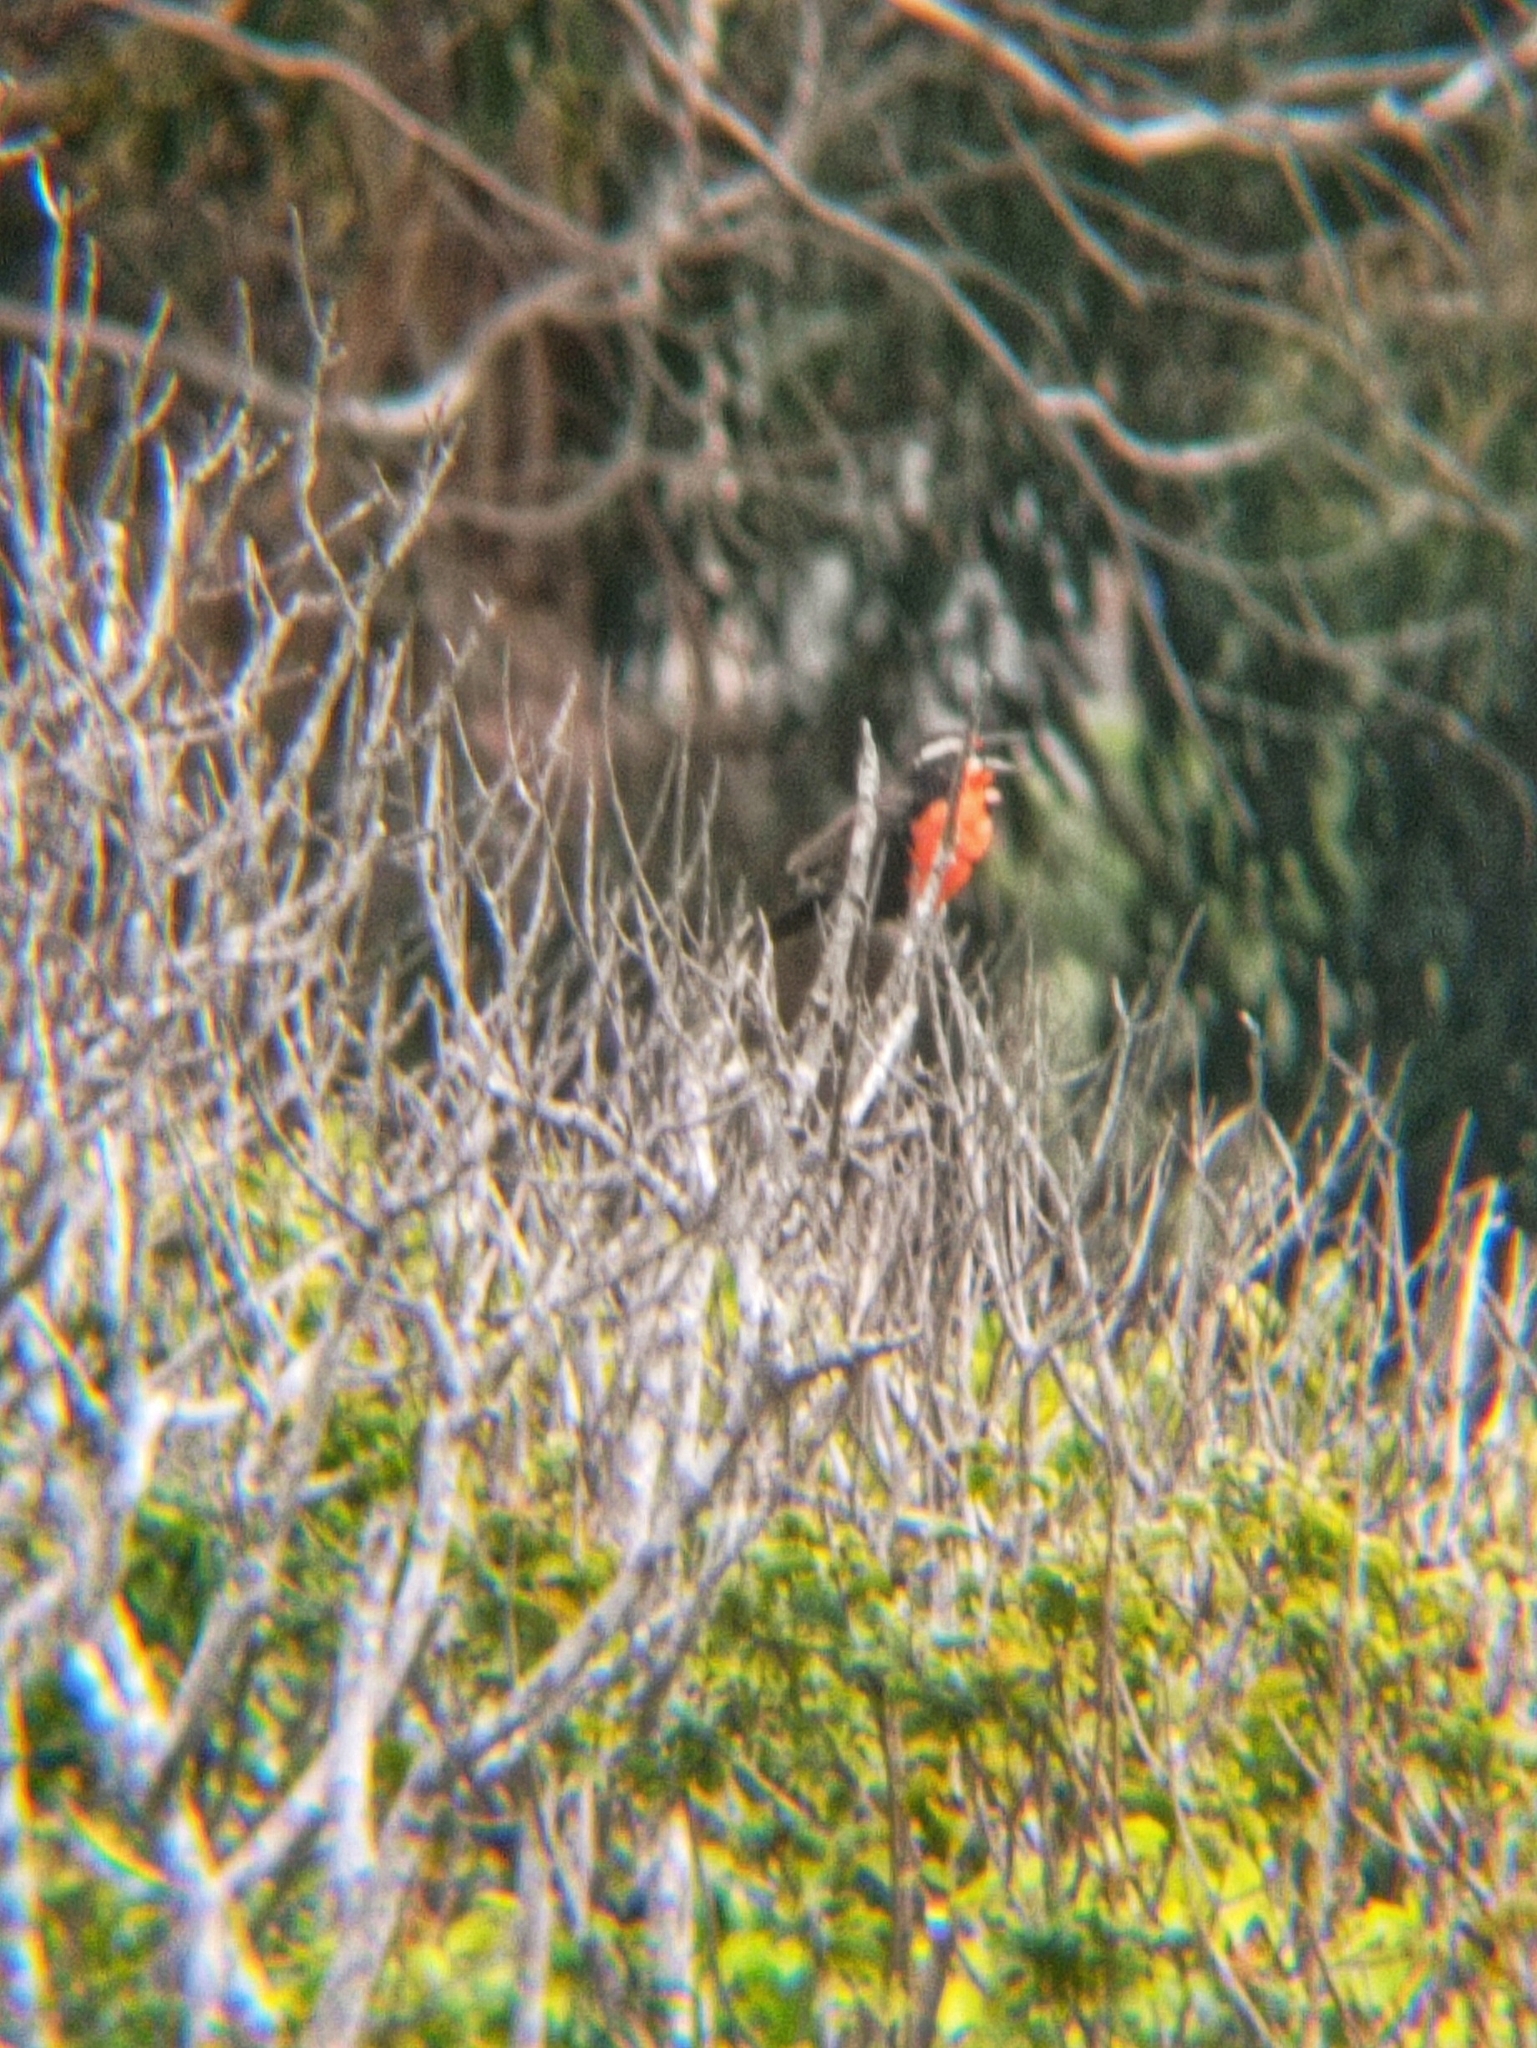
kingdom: Animalia
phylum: Chordata
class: Aves
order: Passeriformes
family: Icteridae
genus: Sturnella
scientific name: Sturnella loyca
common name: Long-tailed meadowlark
